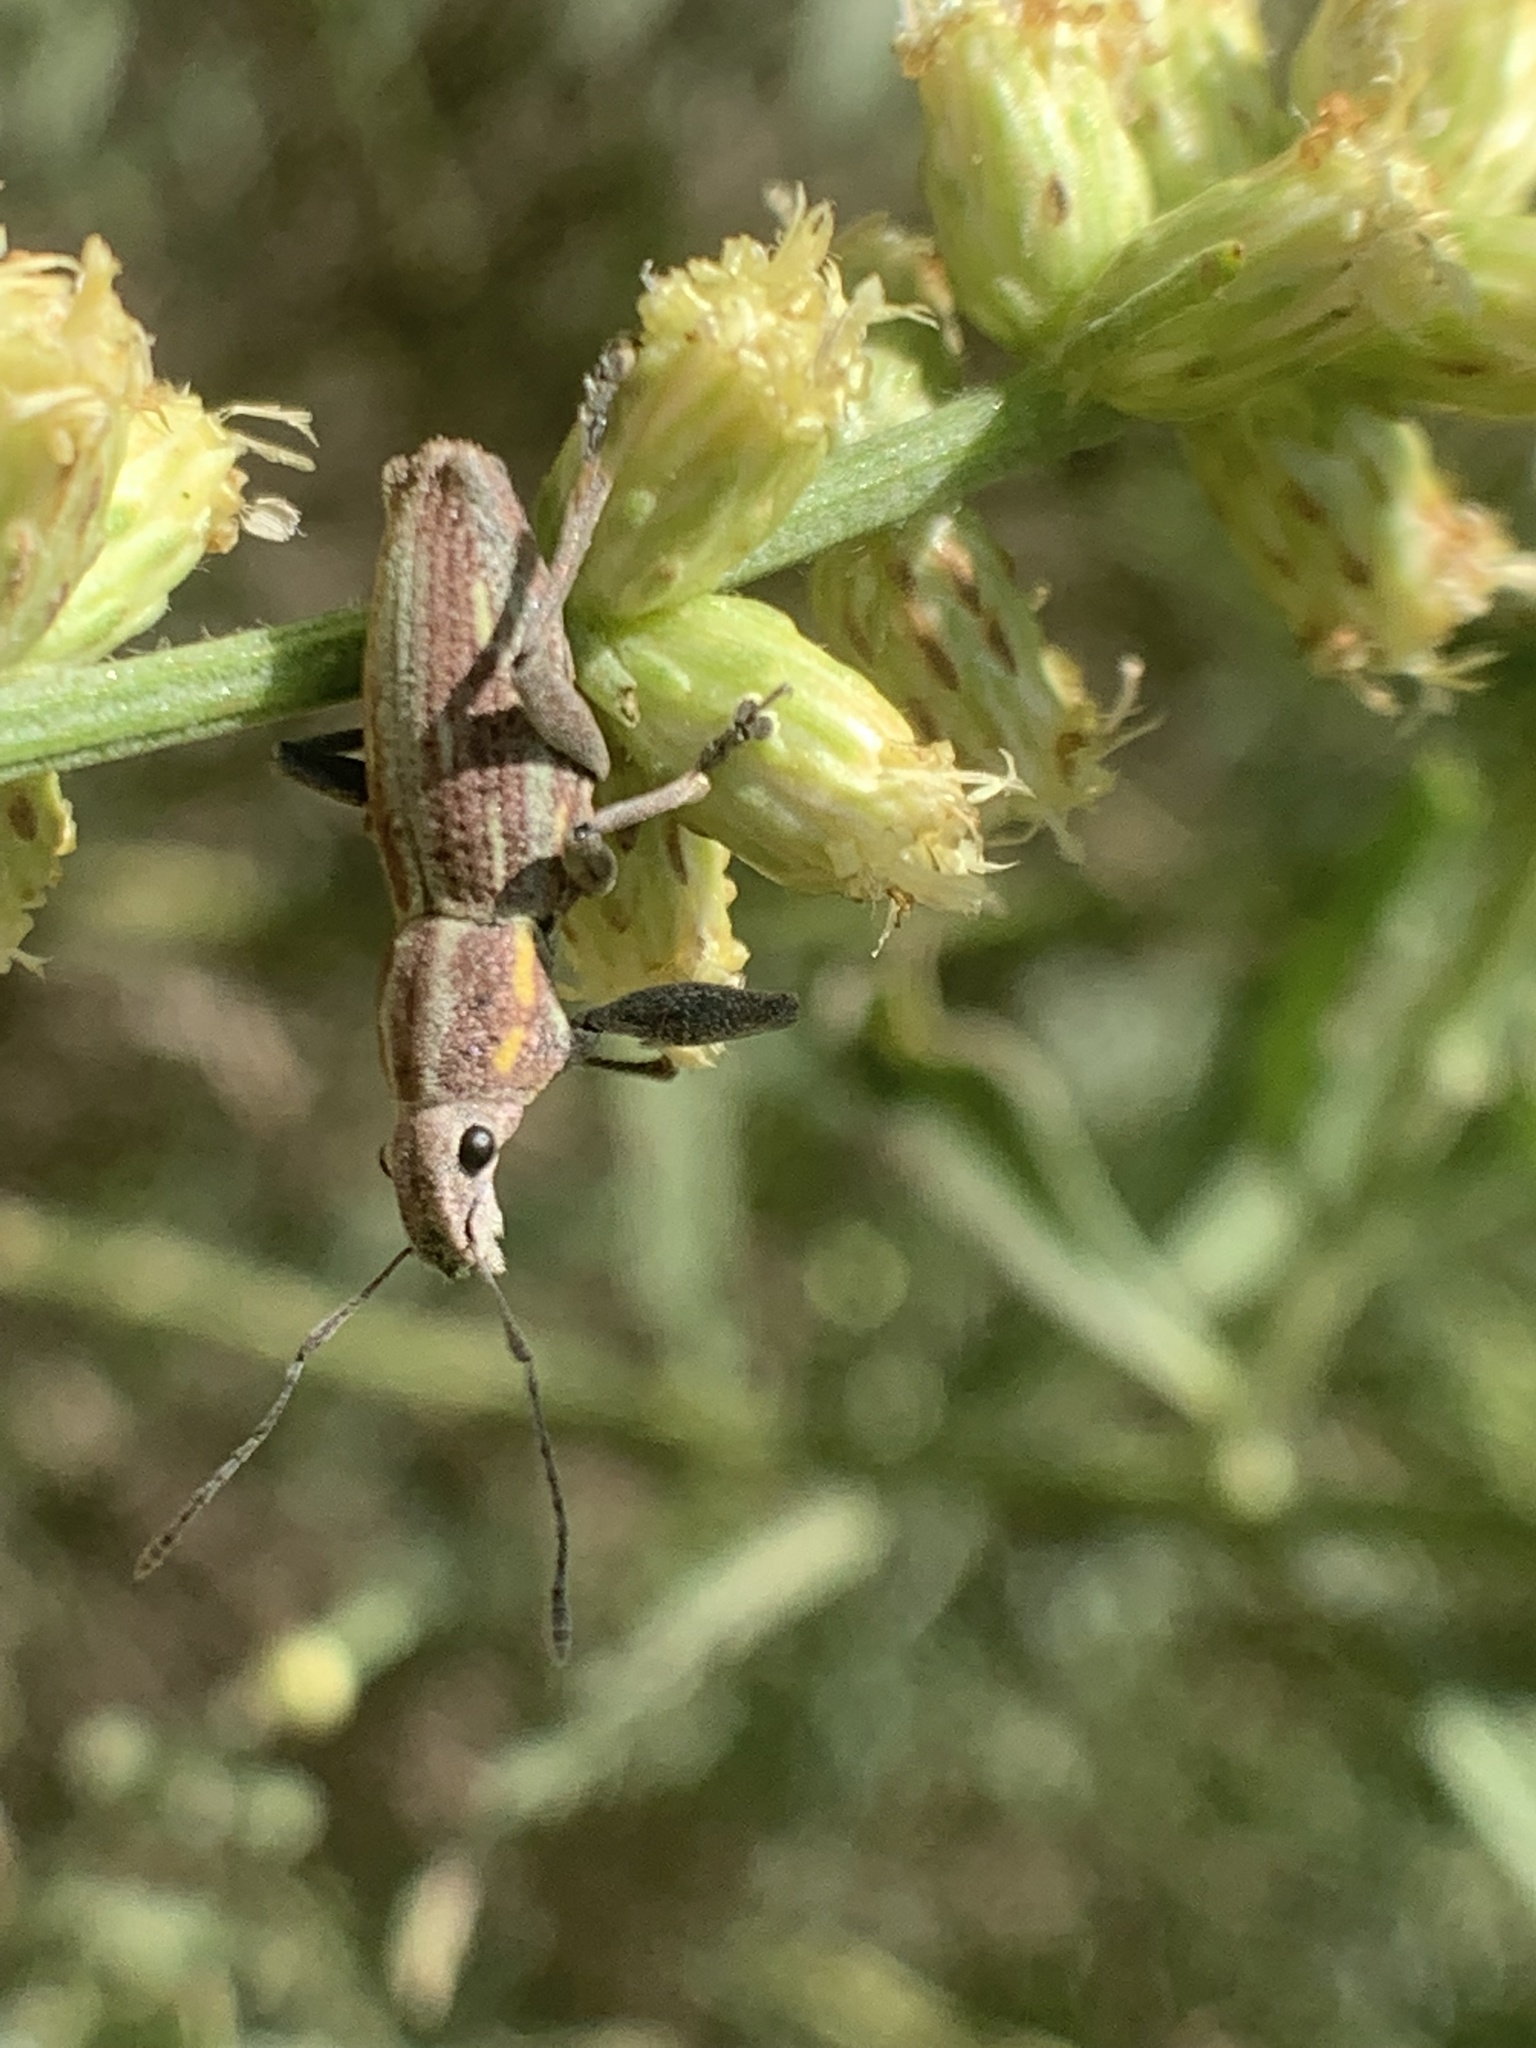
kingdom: Animalia
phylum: Arthropoda
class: Insecta
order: Coleoptera
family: Curculionidae
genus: Naupactus
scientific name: Naupactus xanthographus
